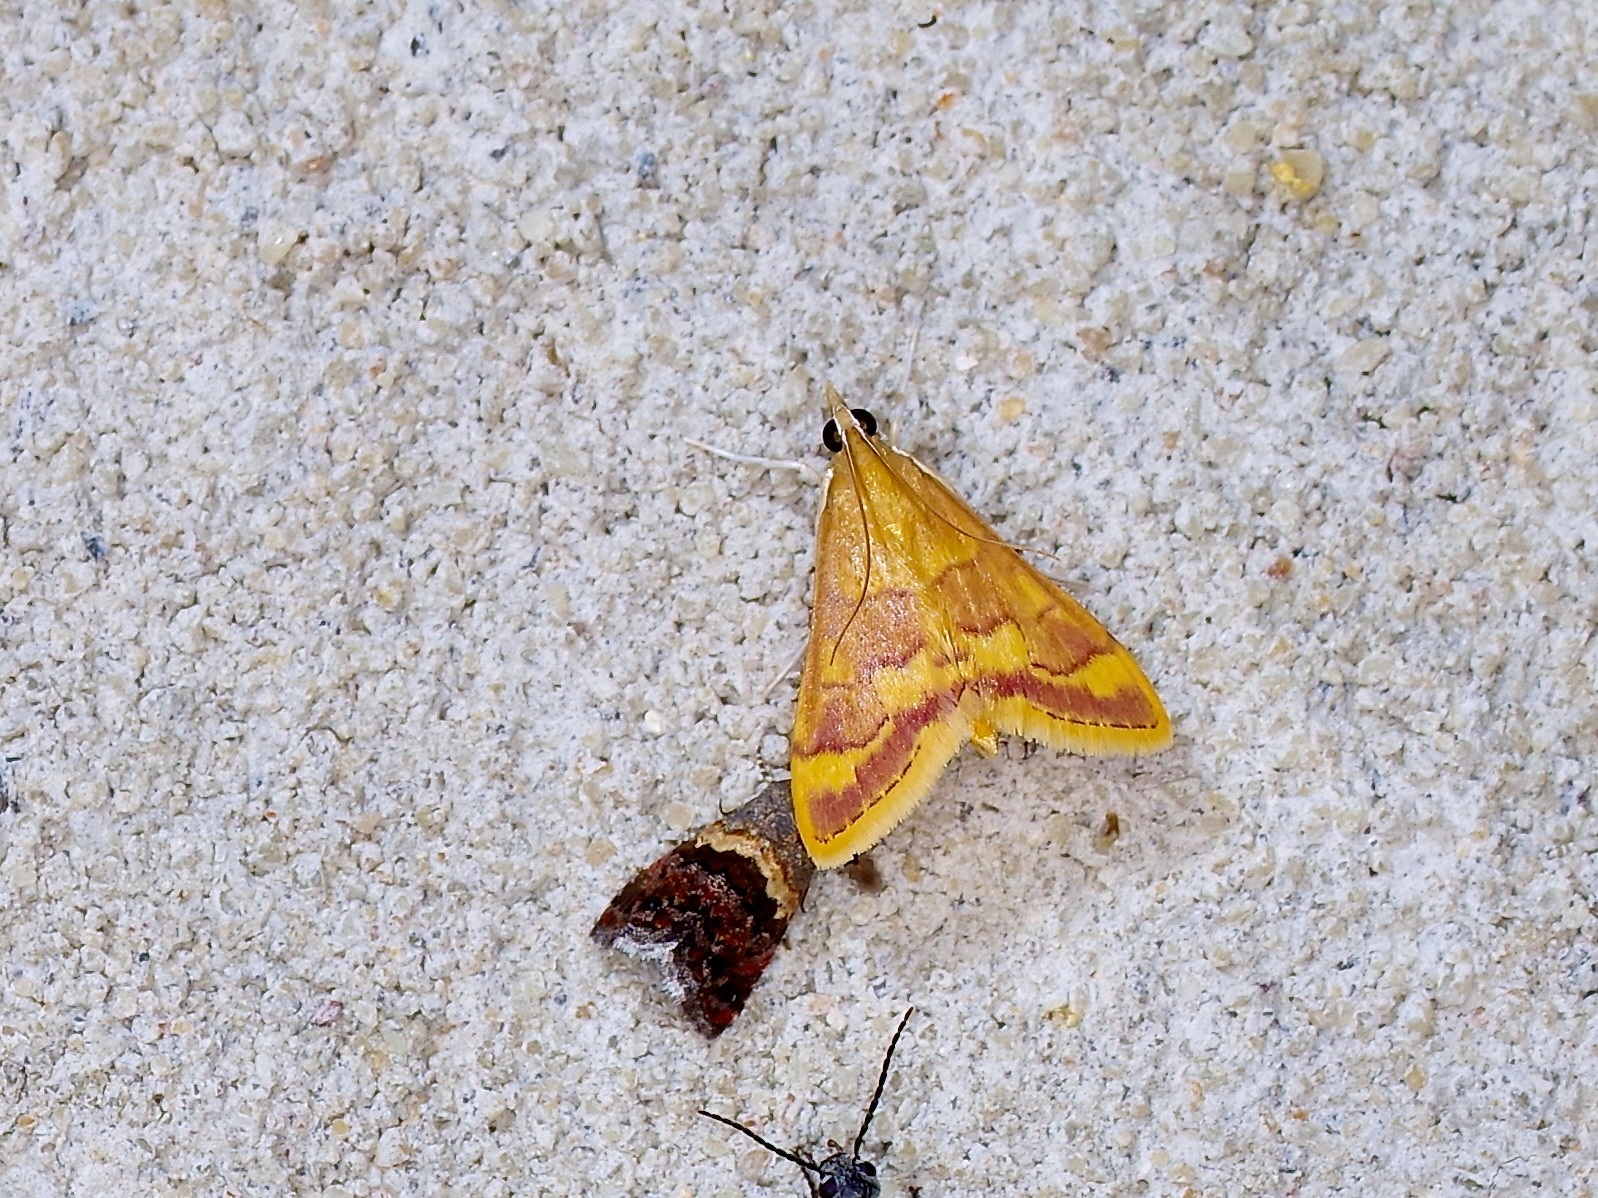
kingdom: Animalia
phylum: Arthropoda
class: Insecta
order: Lepidoptera
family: Crambidae
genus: Pyrausta
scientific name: Pyrausta pseudonythesalis
